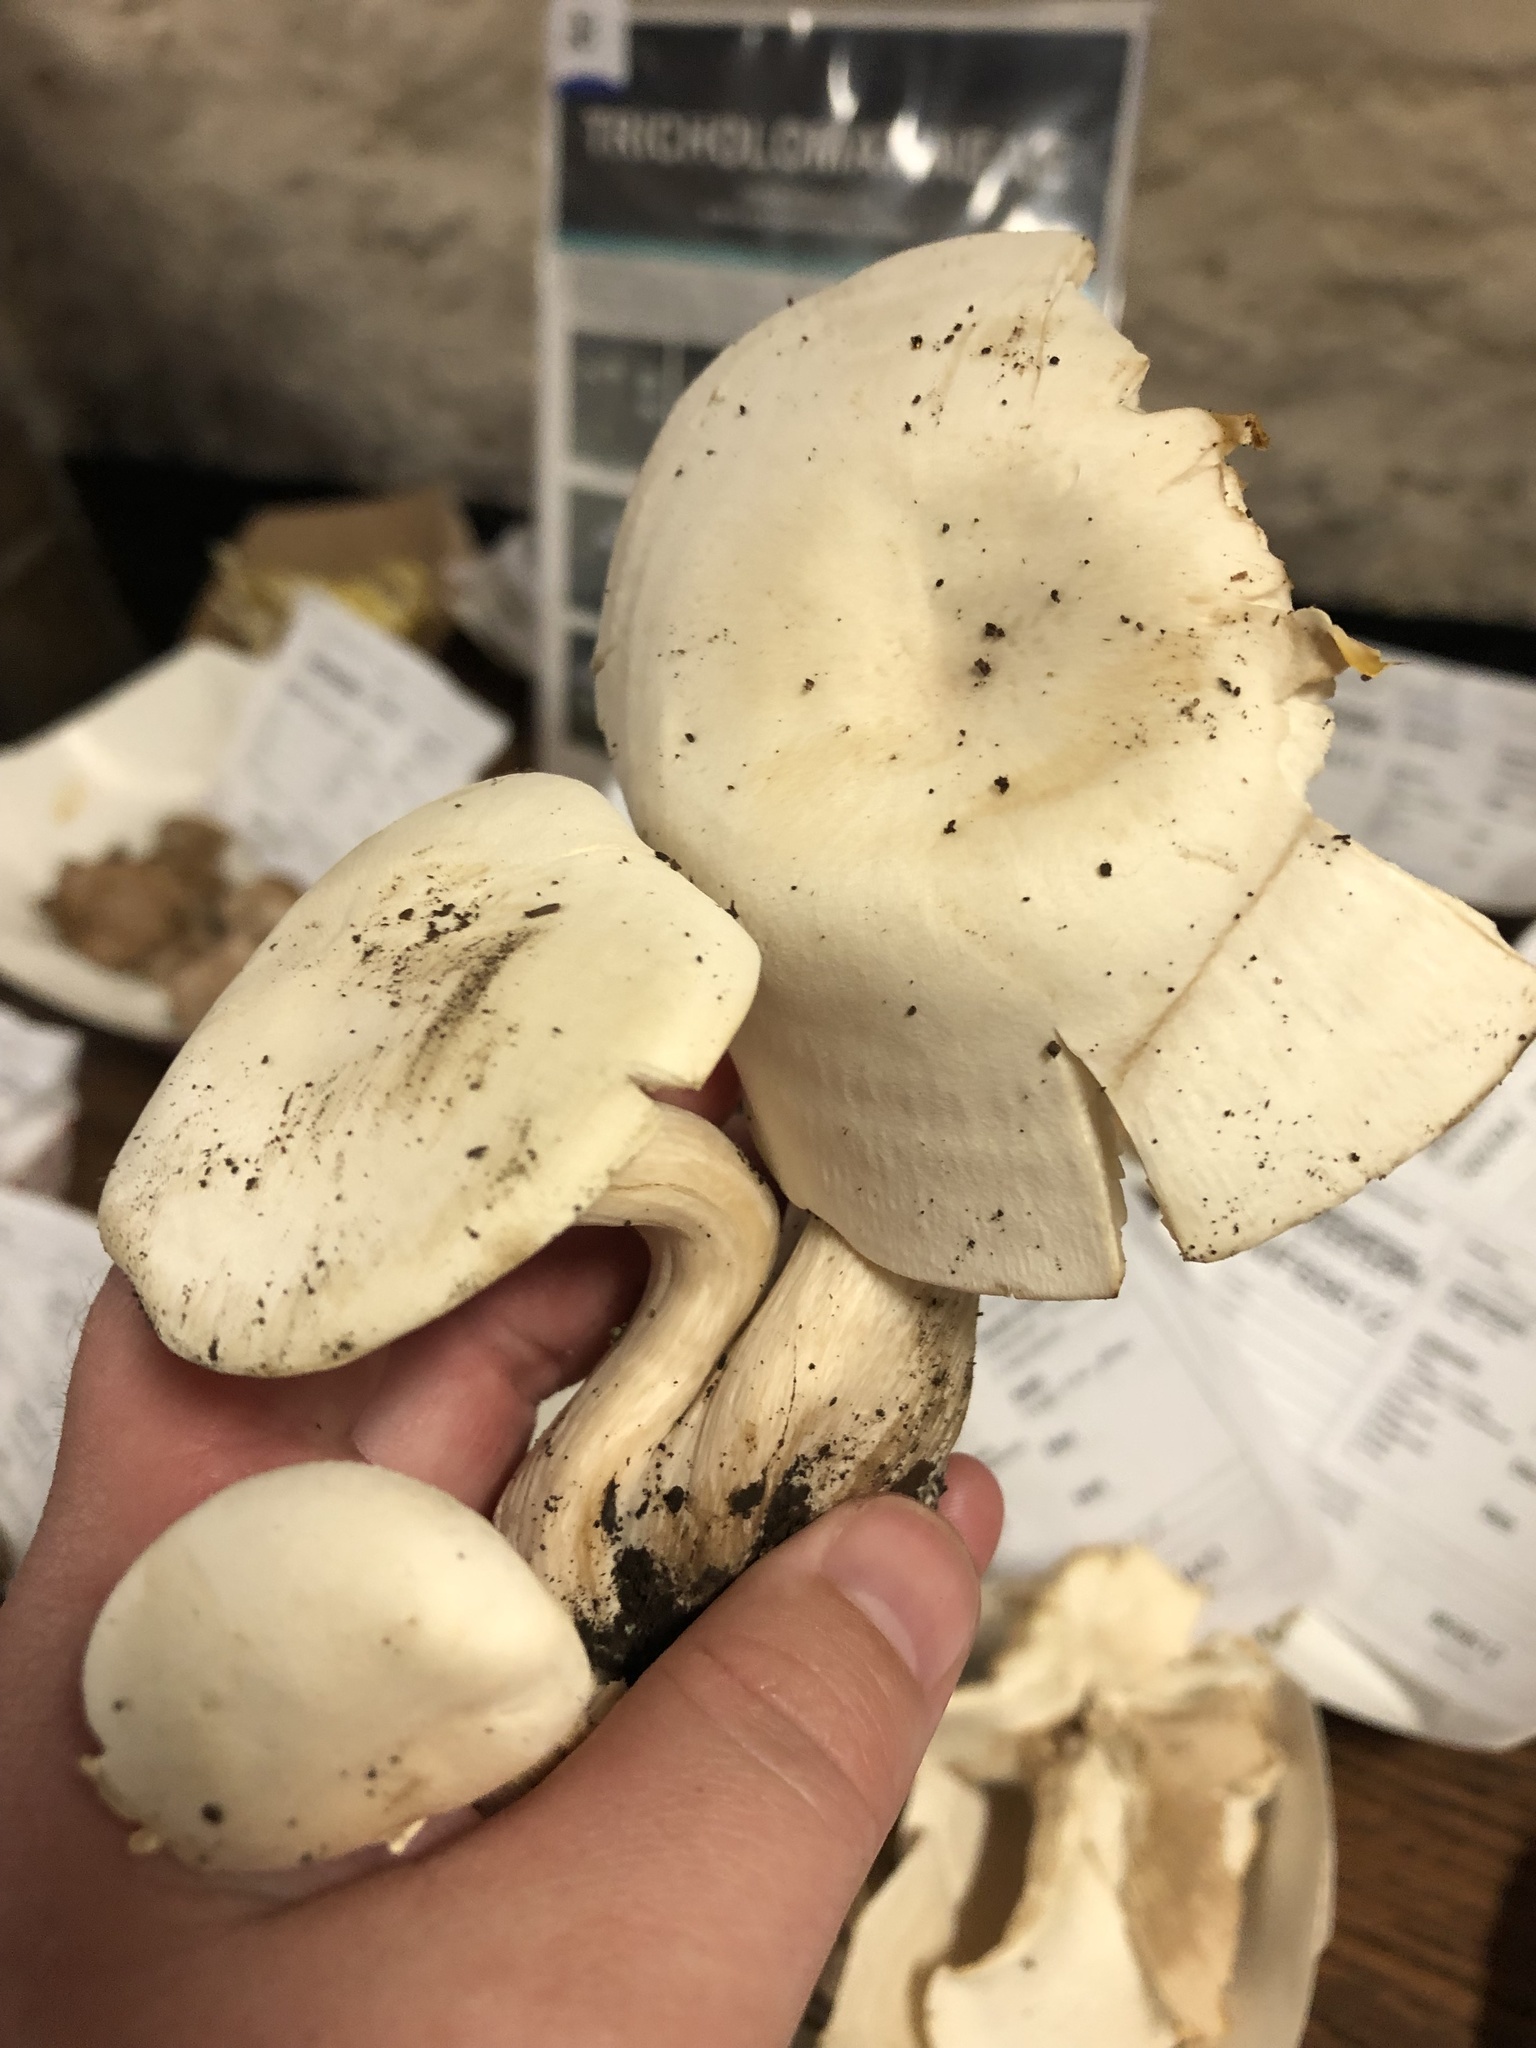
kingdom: Fungi
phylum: Basidiomycota
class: Agaricomycetes
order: Agaricales
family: Tricholomataceae
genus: Lepista
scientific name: Lepista subconnexa
